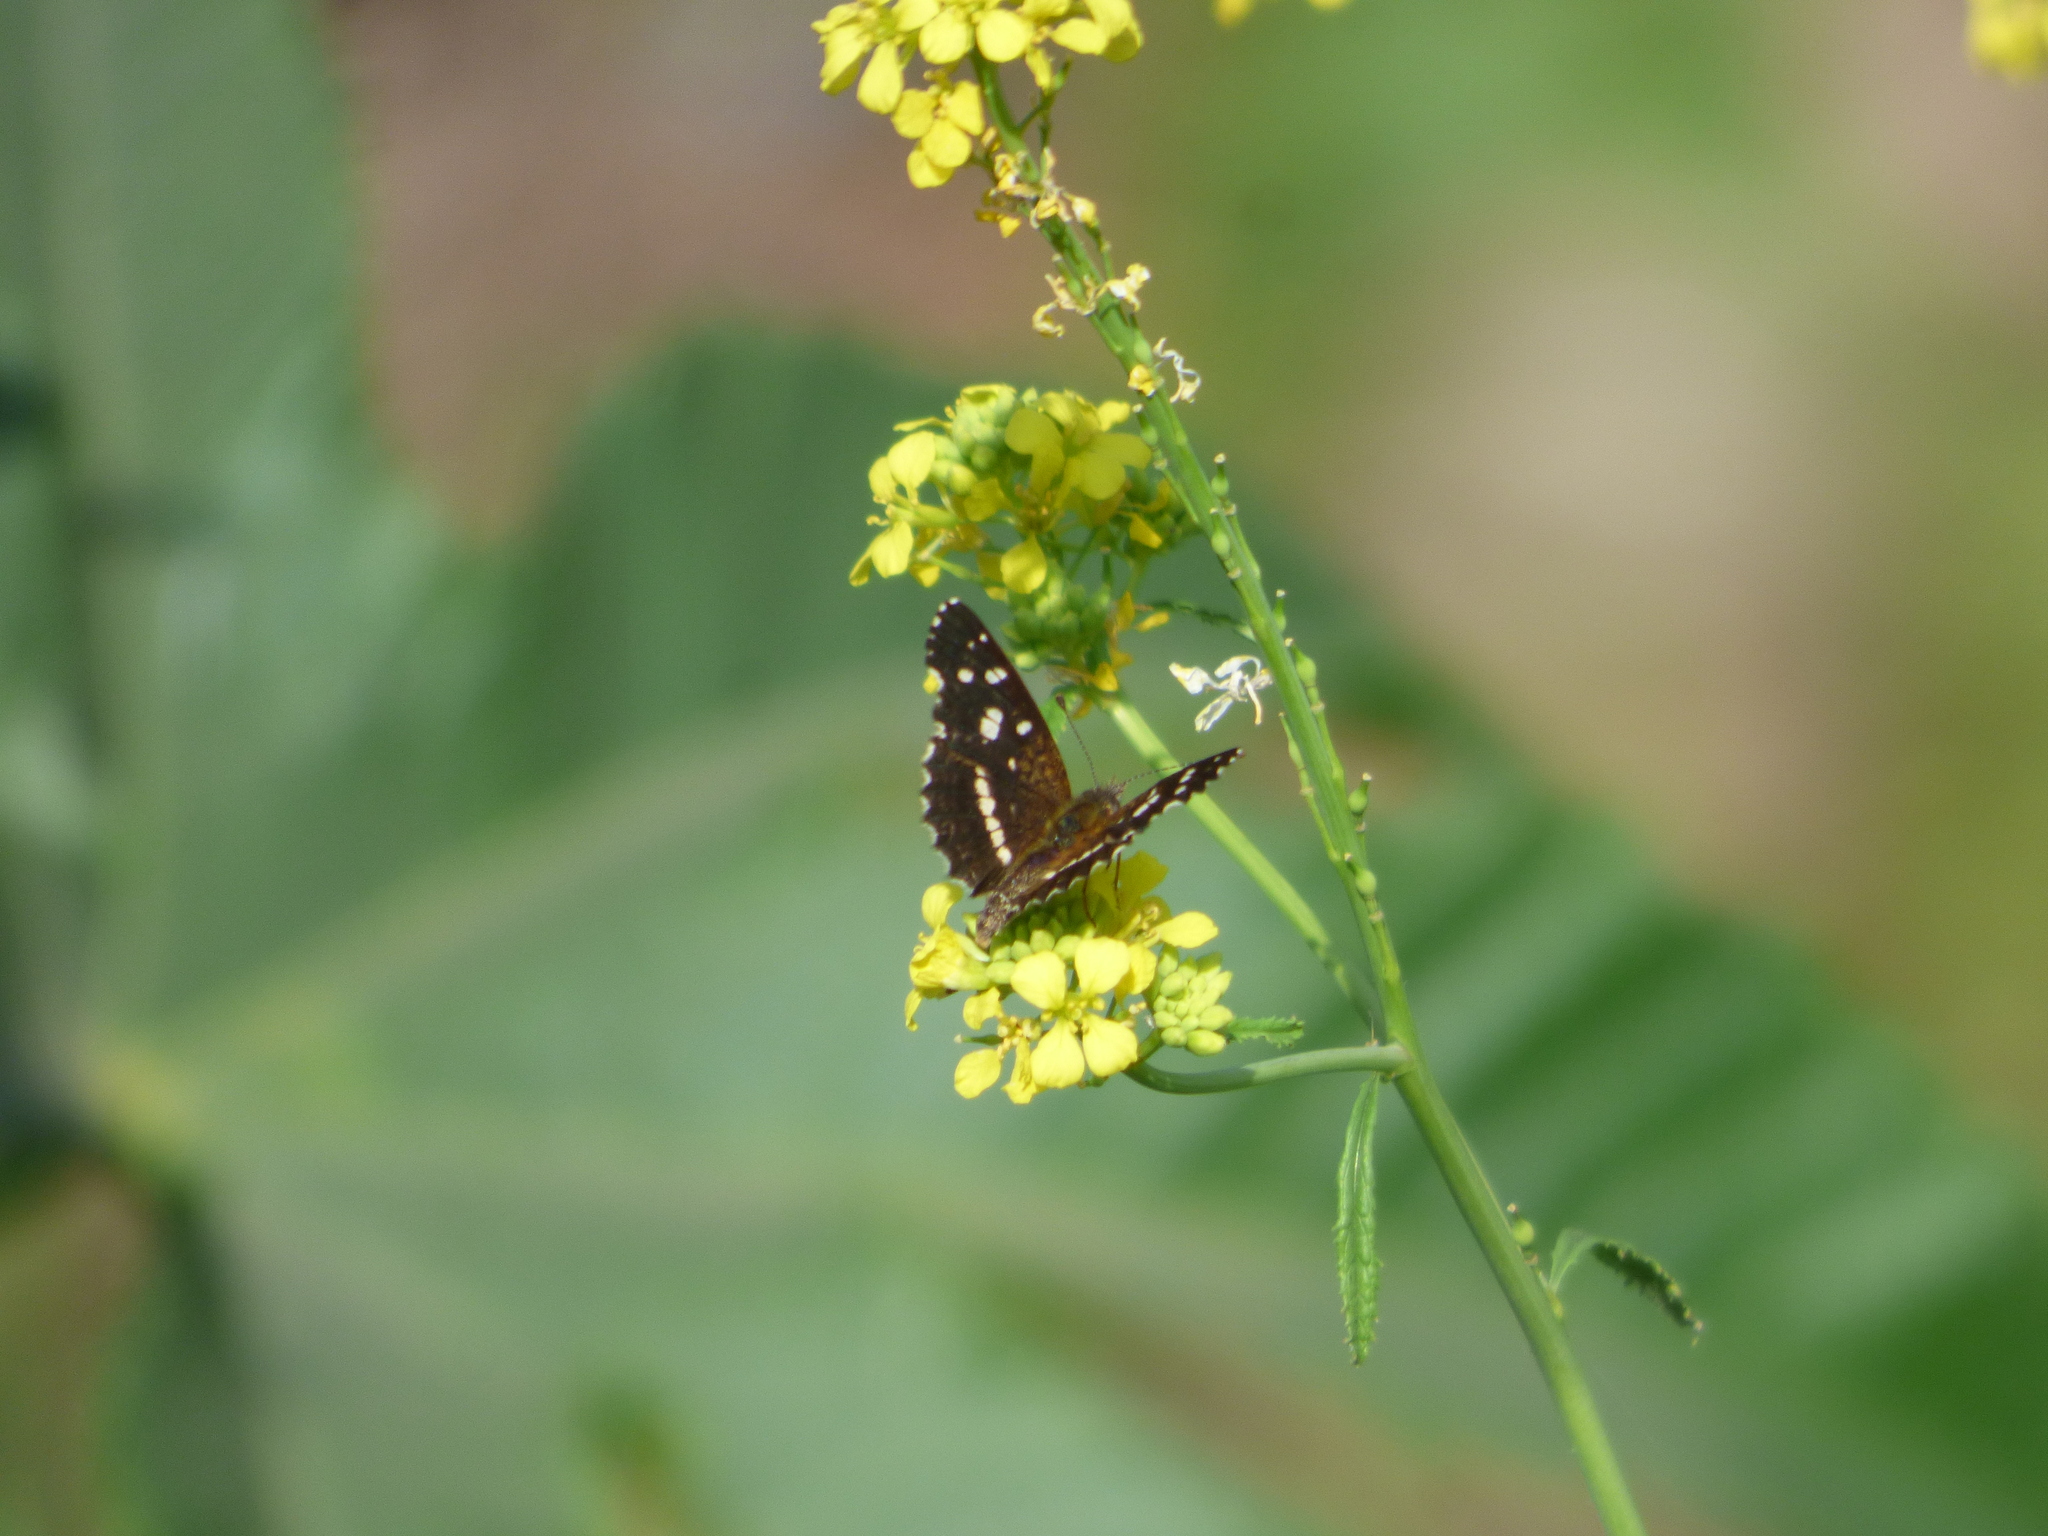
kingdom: Animalia
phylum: Arthropoda
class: Insecta
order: Lepidoptera
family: Nymphalidae
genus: Ortilia
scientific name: Ortilia ithra
